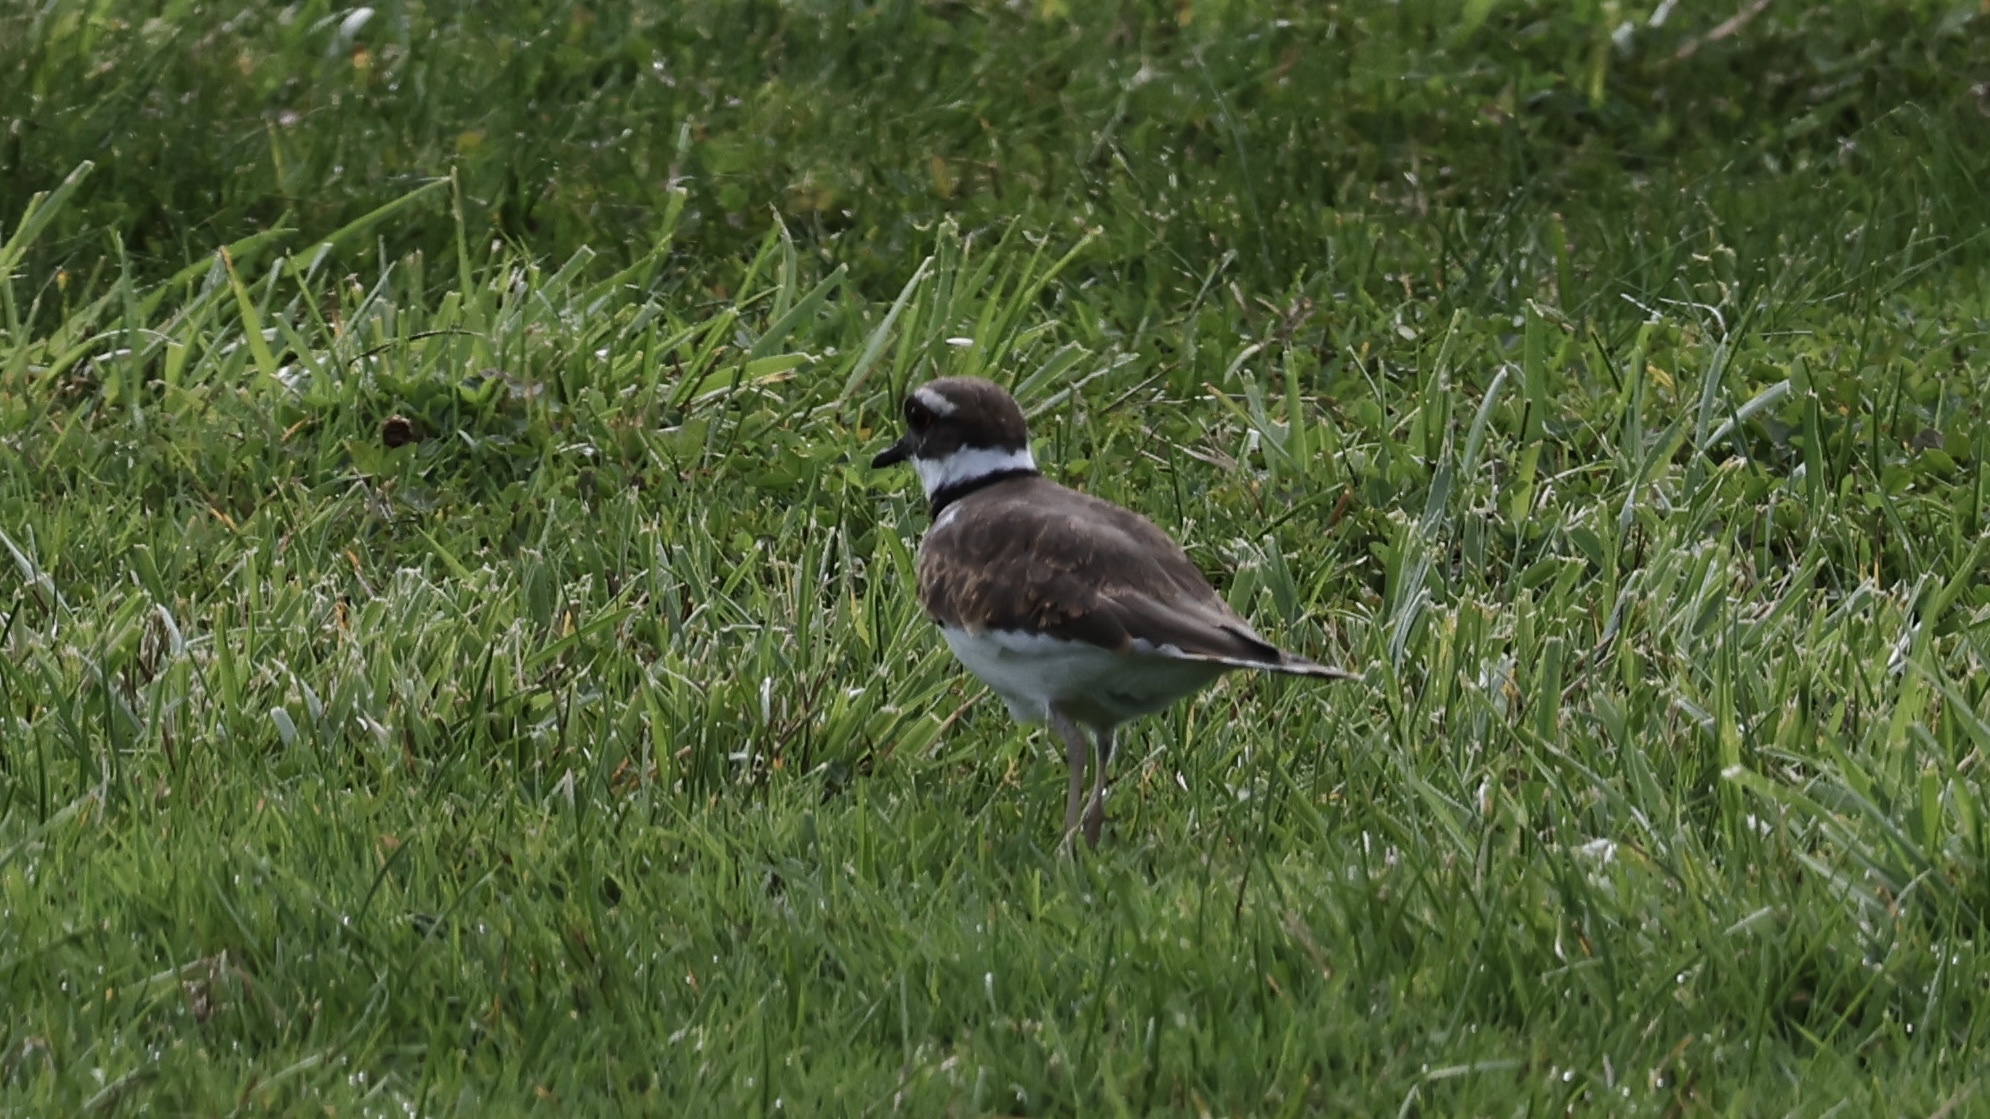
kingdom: Animalia
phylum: Chordata
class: Aves
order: Charadriiformes
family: Charadriidae
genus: Charadrius
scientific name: Charadrius vociferus
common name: Killdeer
